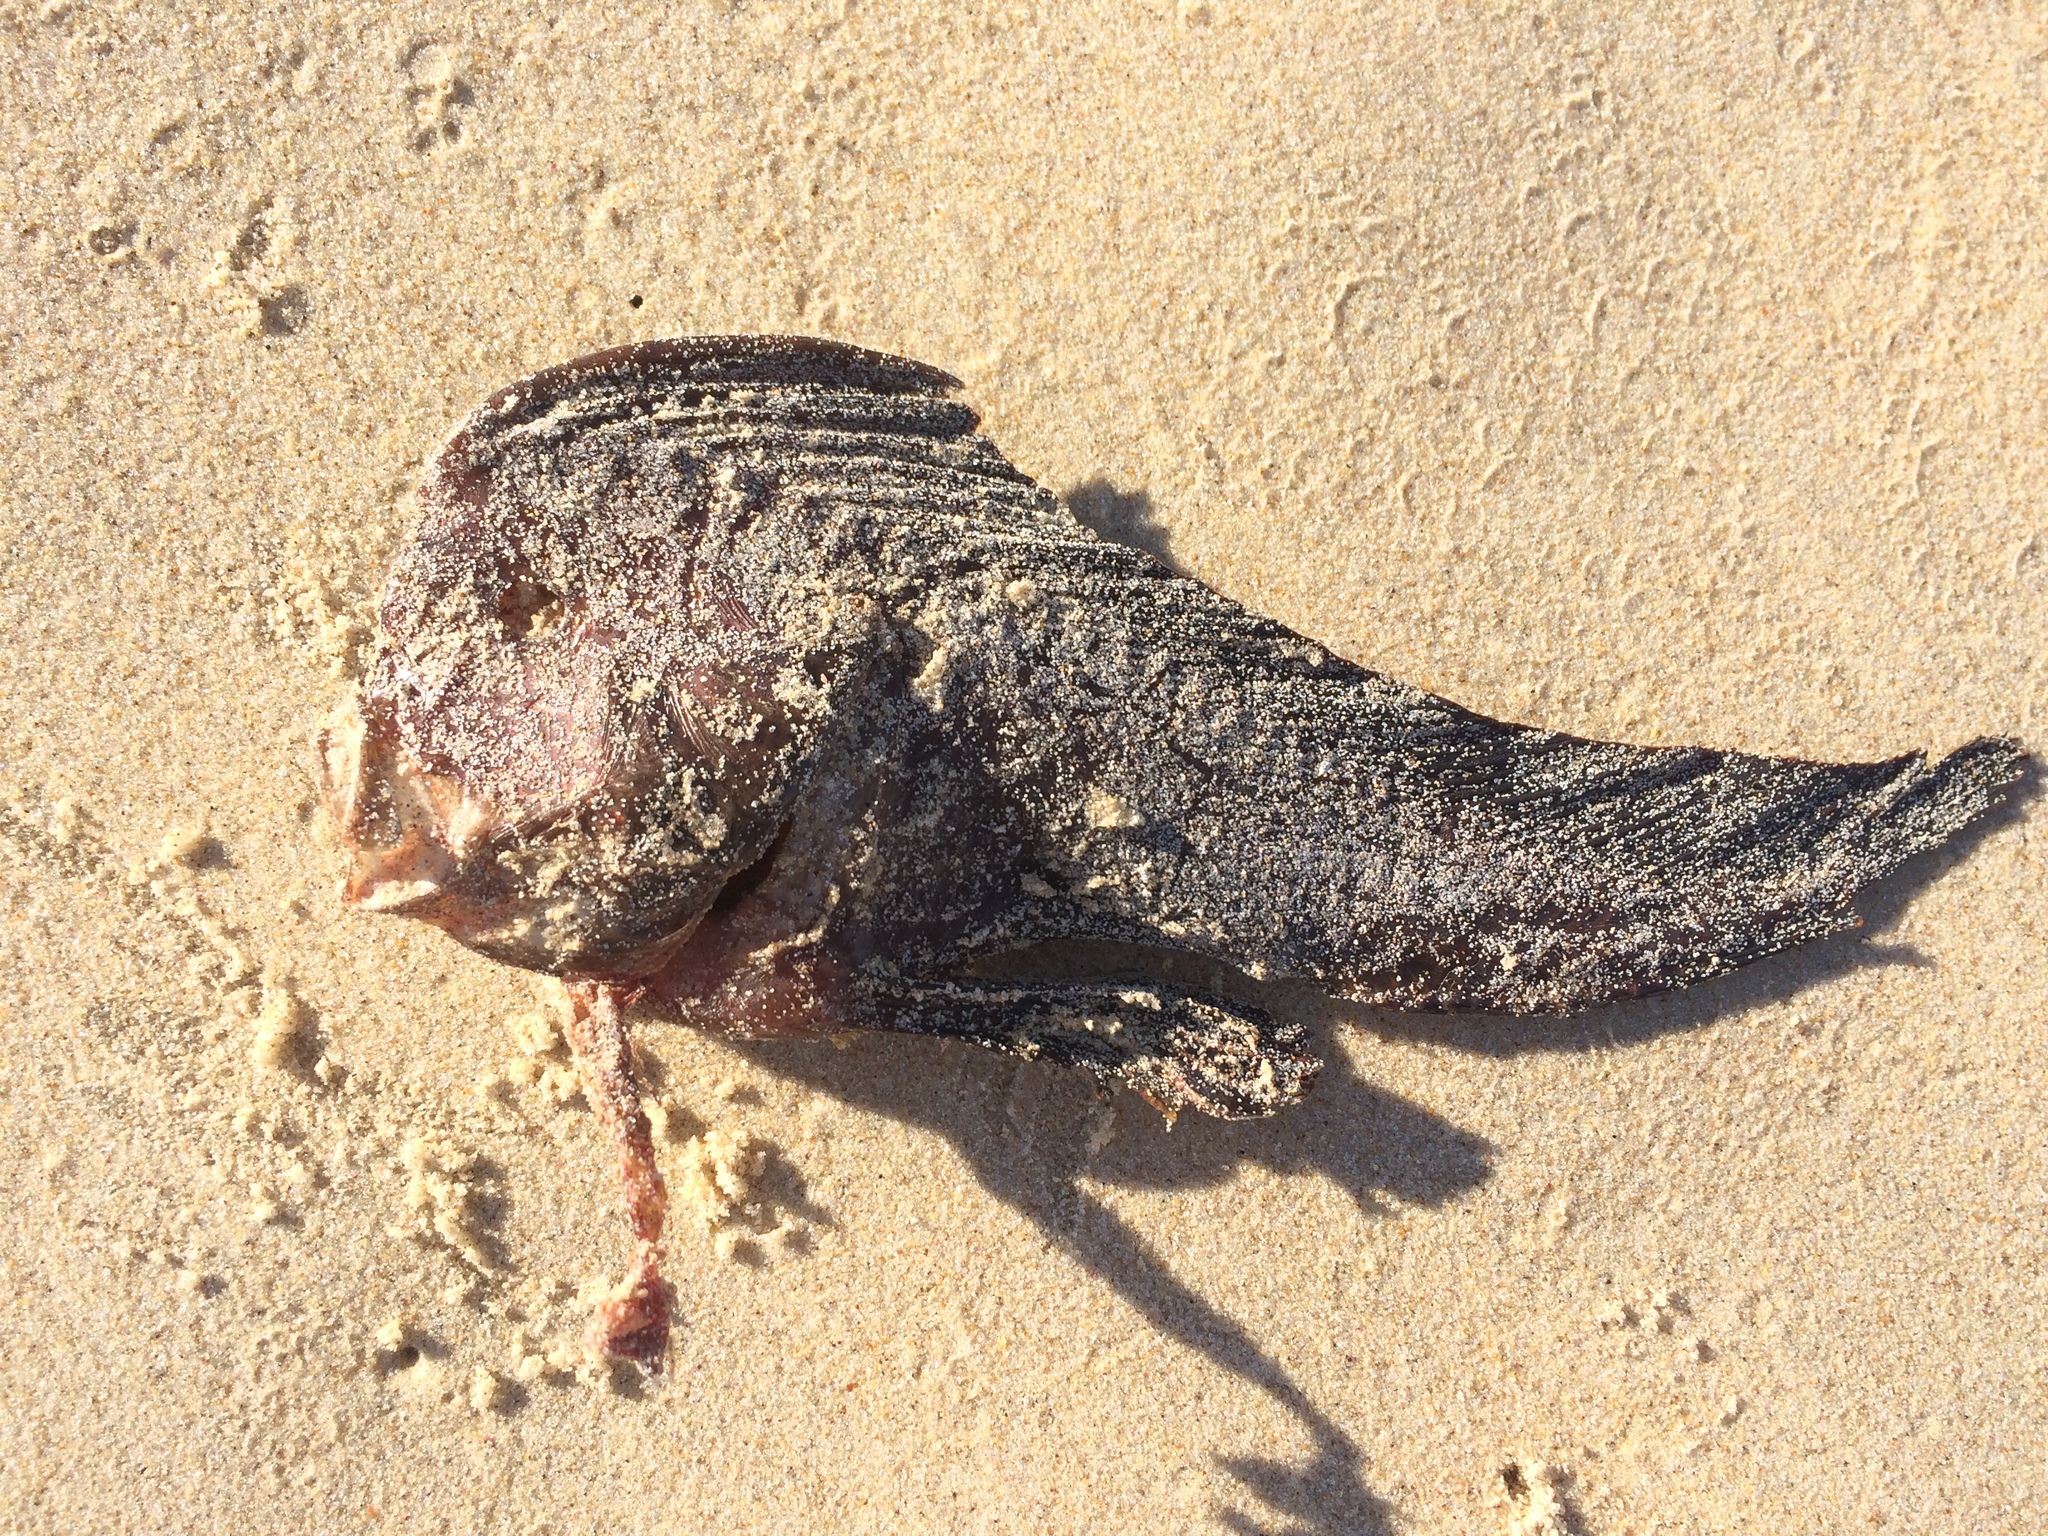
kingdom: Animalia
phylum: Chordata
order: Scorpaeniformes
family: Pataecidae
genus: Pataecus
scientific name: Pataecus fronto
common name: Red indianfish
